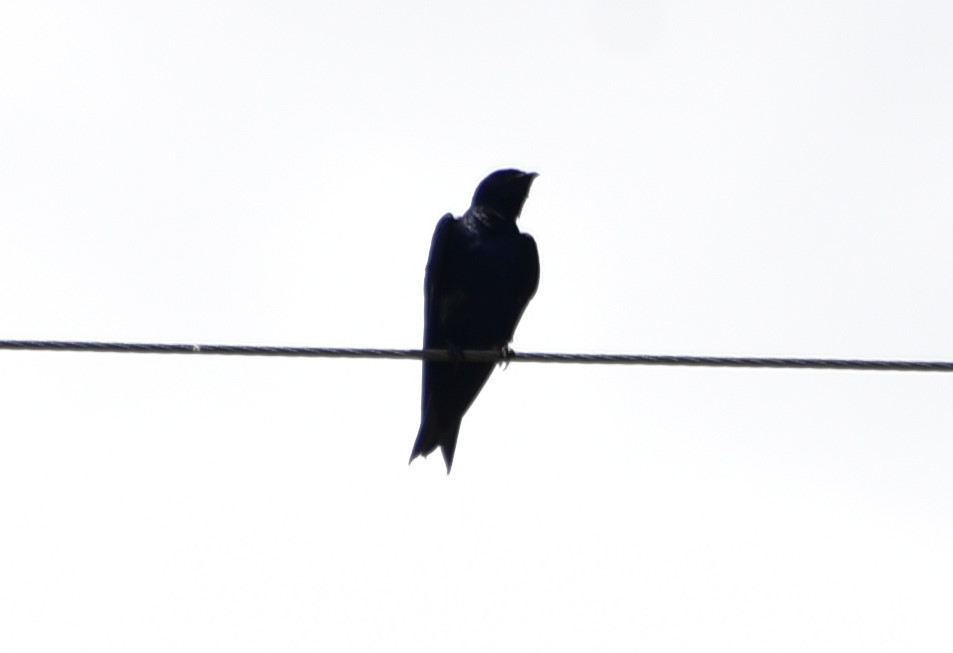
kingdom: Animalia
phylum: Chordata
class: Aves
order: Passeriformes
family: Hirundinidae
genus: Progne
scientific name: Progne subis
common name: Purple martin
